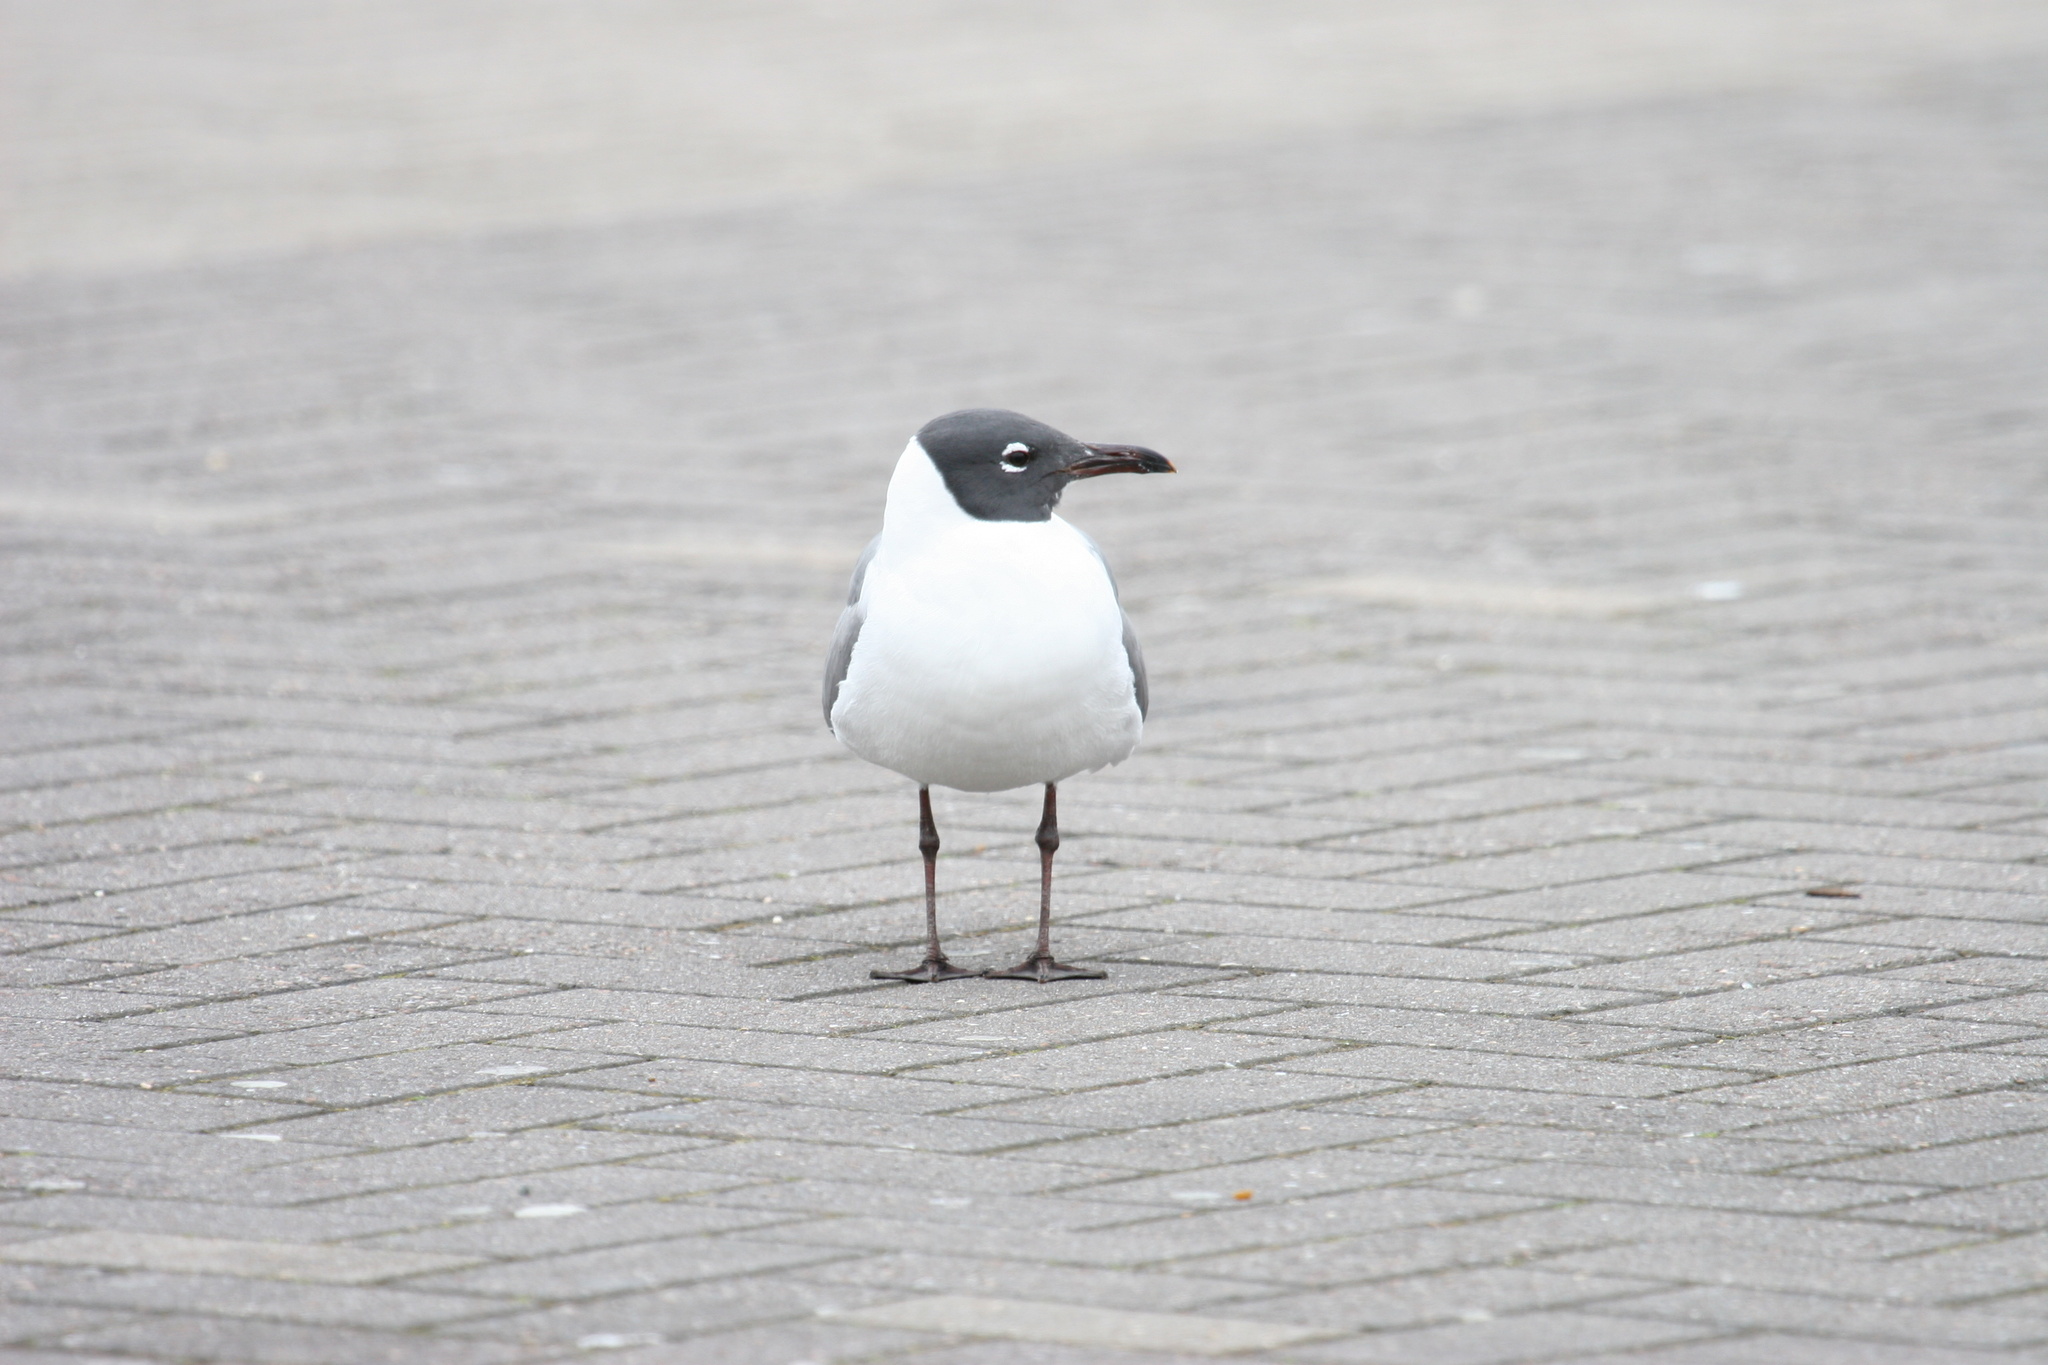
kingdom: Animalia
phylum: Chordata
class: Aves
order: Charadriiformes
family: Laridae
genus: Leucophaeus
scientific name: Leucophaeus atricilla
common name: Laughing gull
